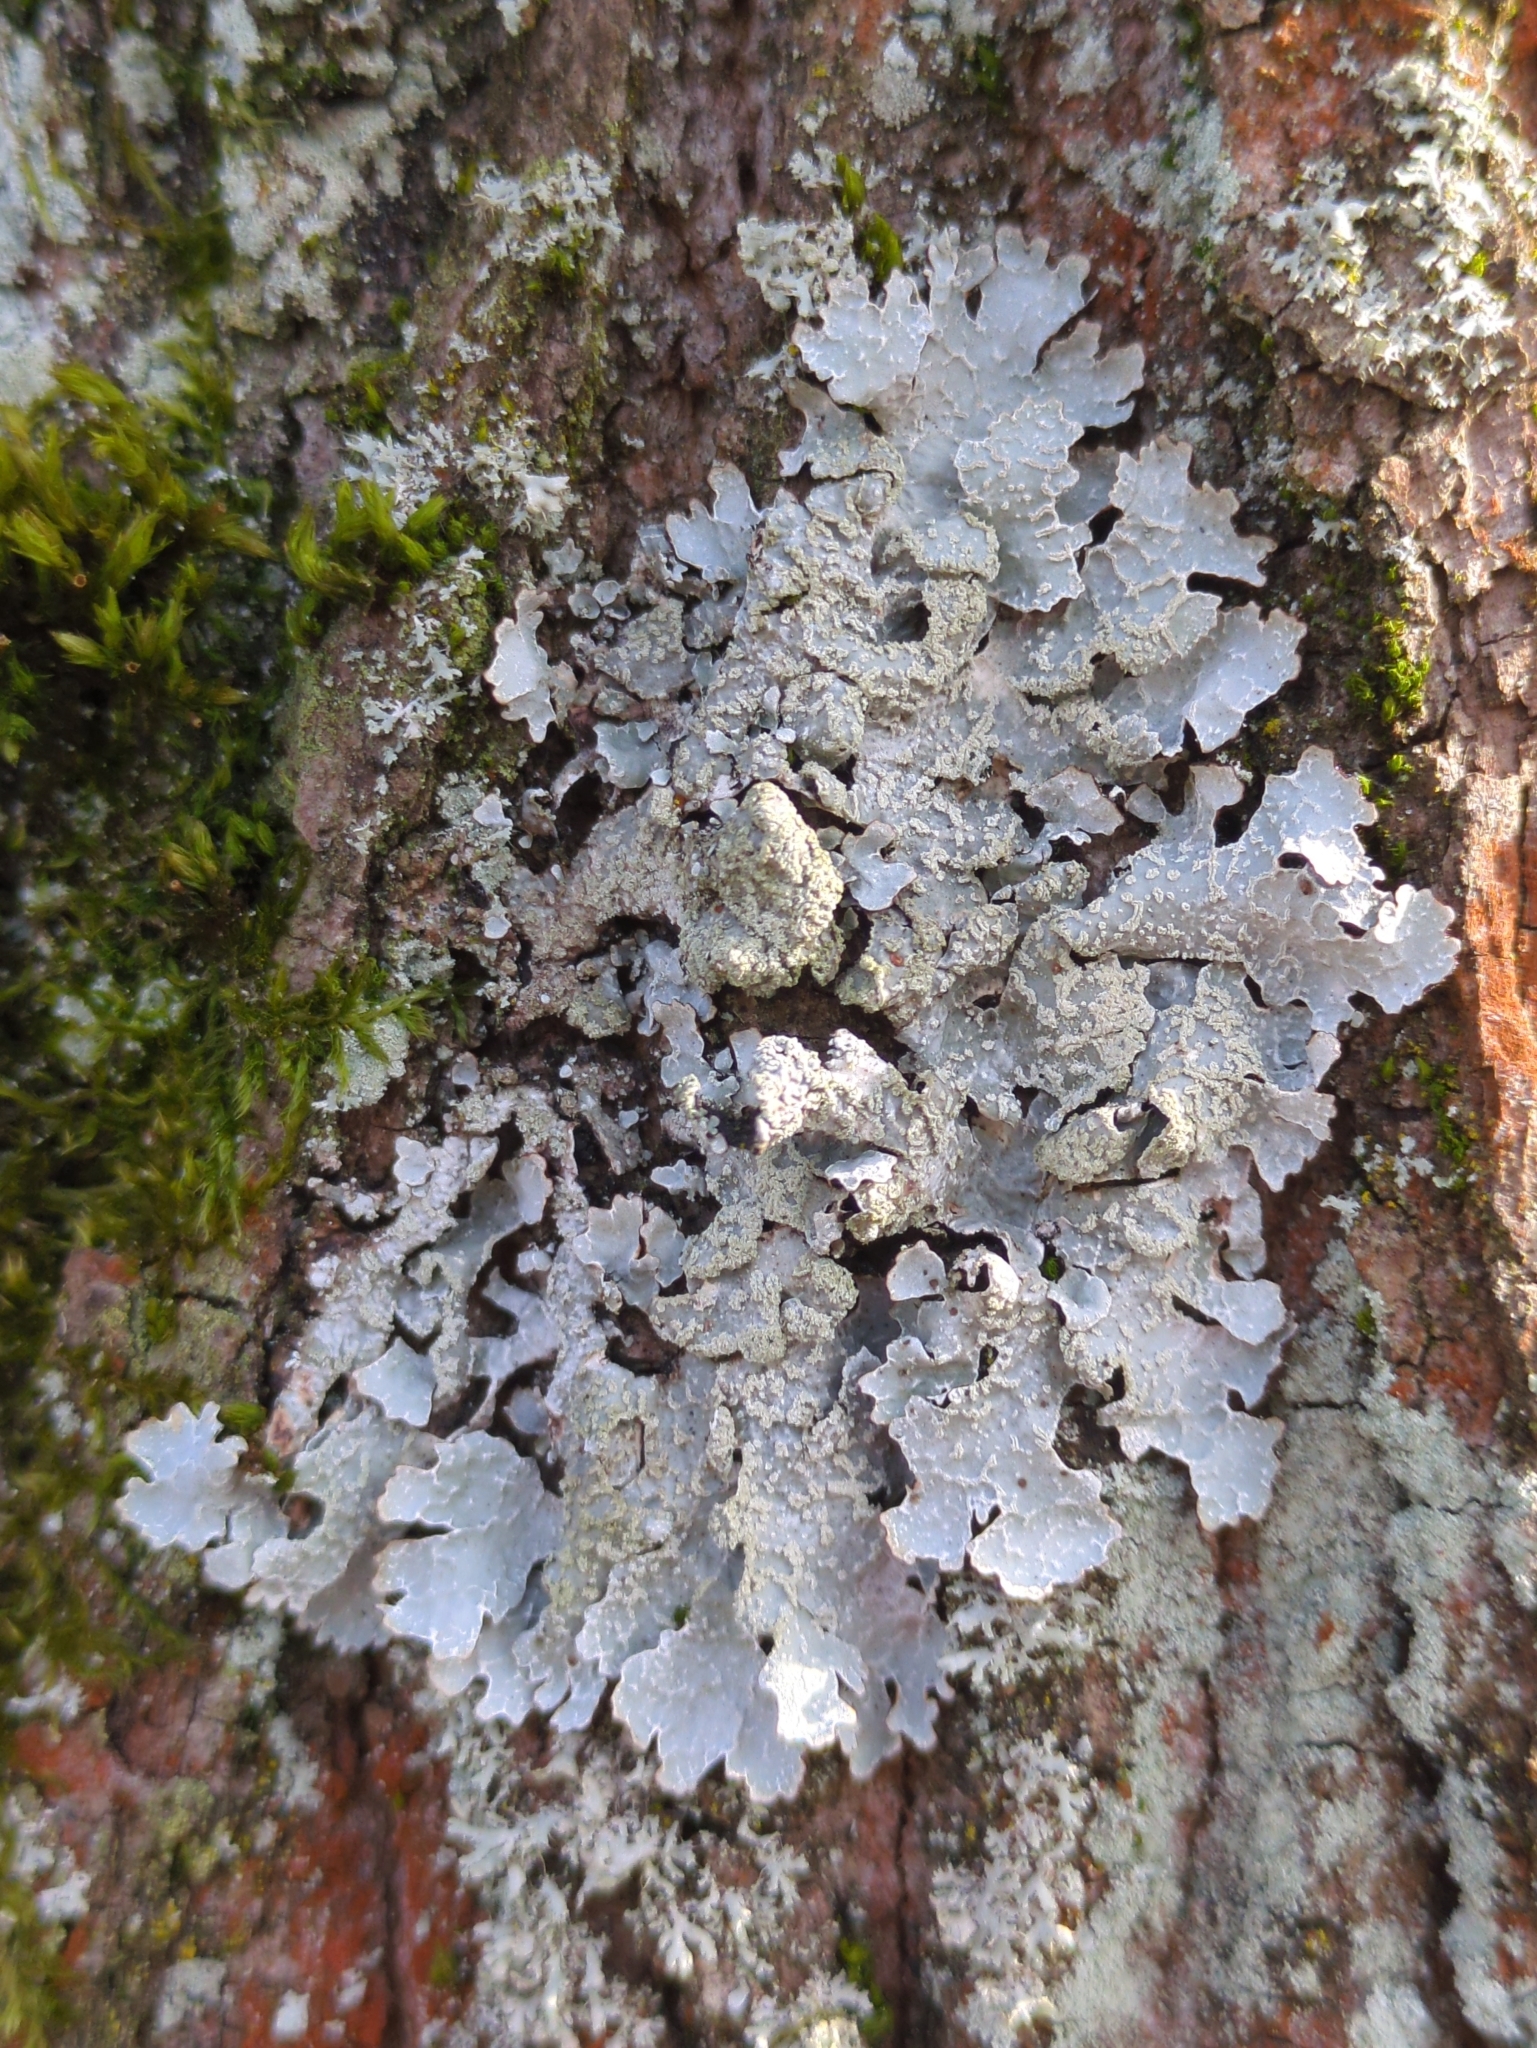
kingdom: Fungi
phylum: Ascomycota
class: Lecanoromycetes
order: Lecanorales
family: Parmeliaceae
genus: Parmelia
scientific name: Parmelia sulcata
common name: Netted shield lichen
